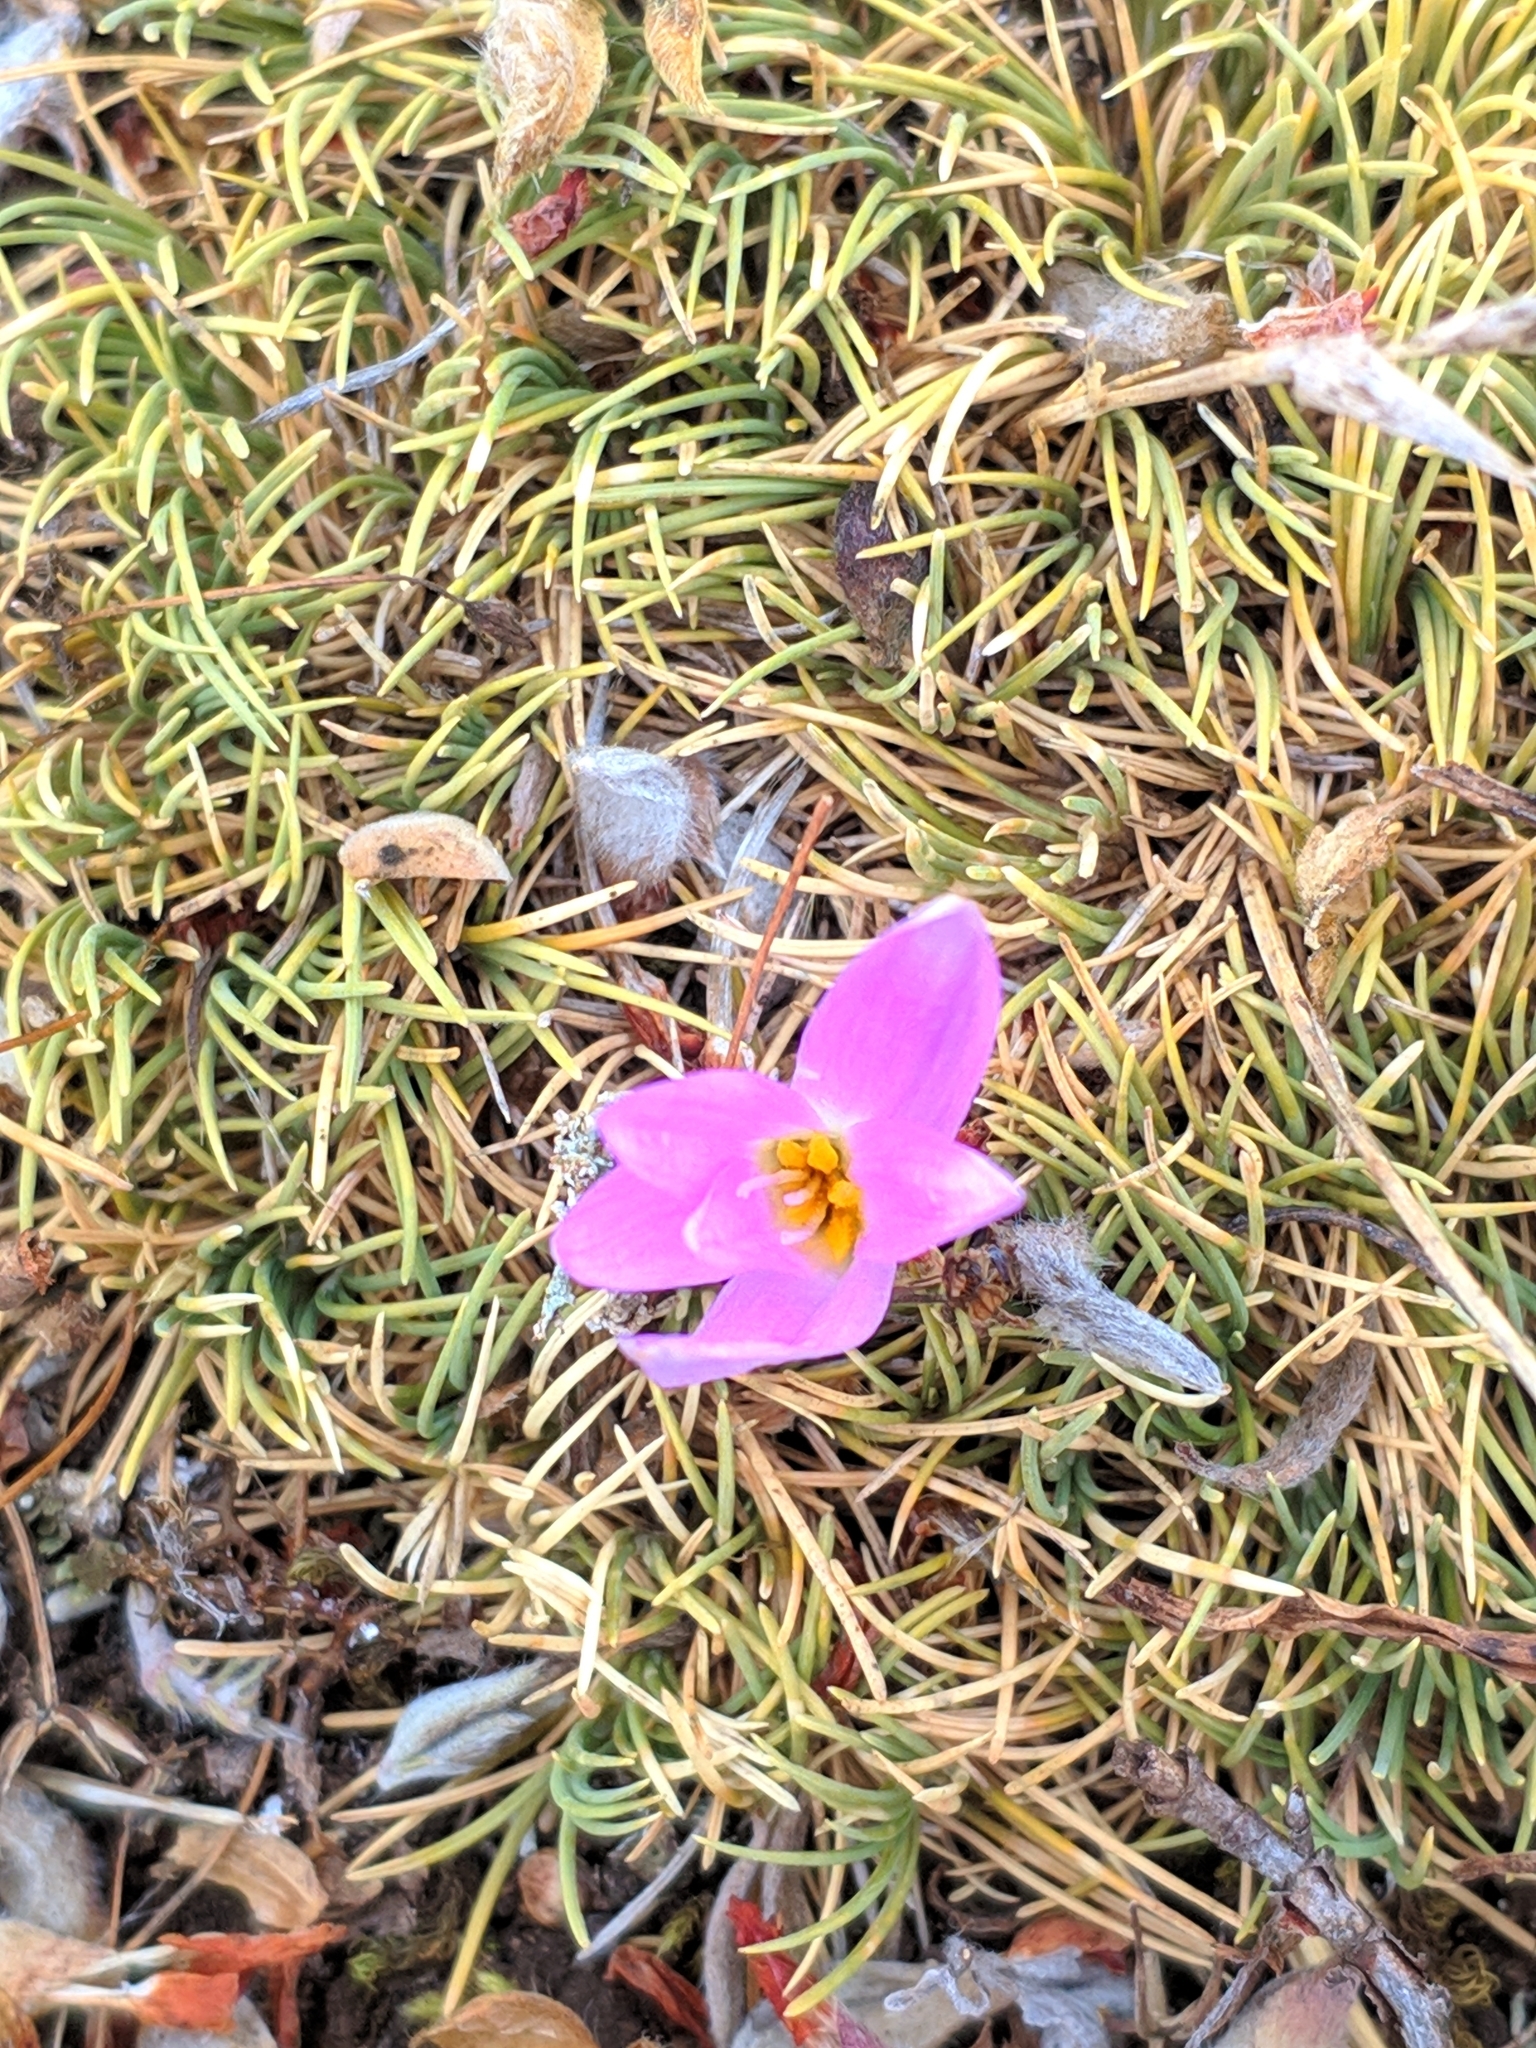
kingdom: Plantae
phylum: Tracheophyta
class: Liliopsida
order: Liliales
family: Colchicaceae
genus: Colchicum
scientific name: Colchicum montanum
